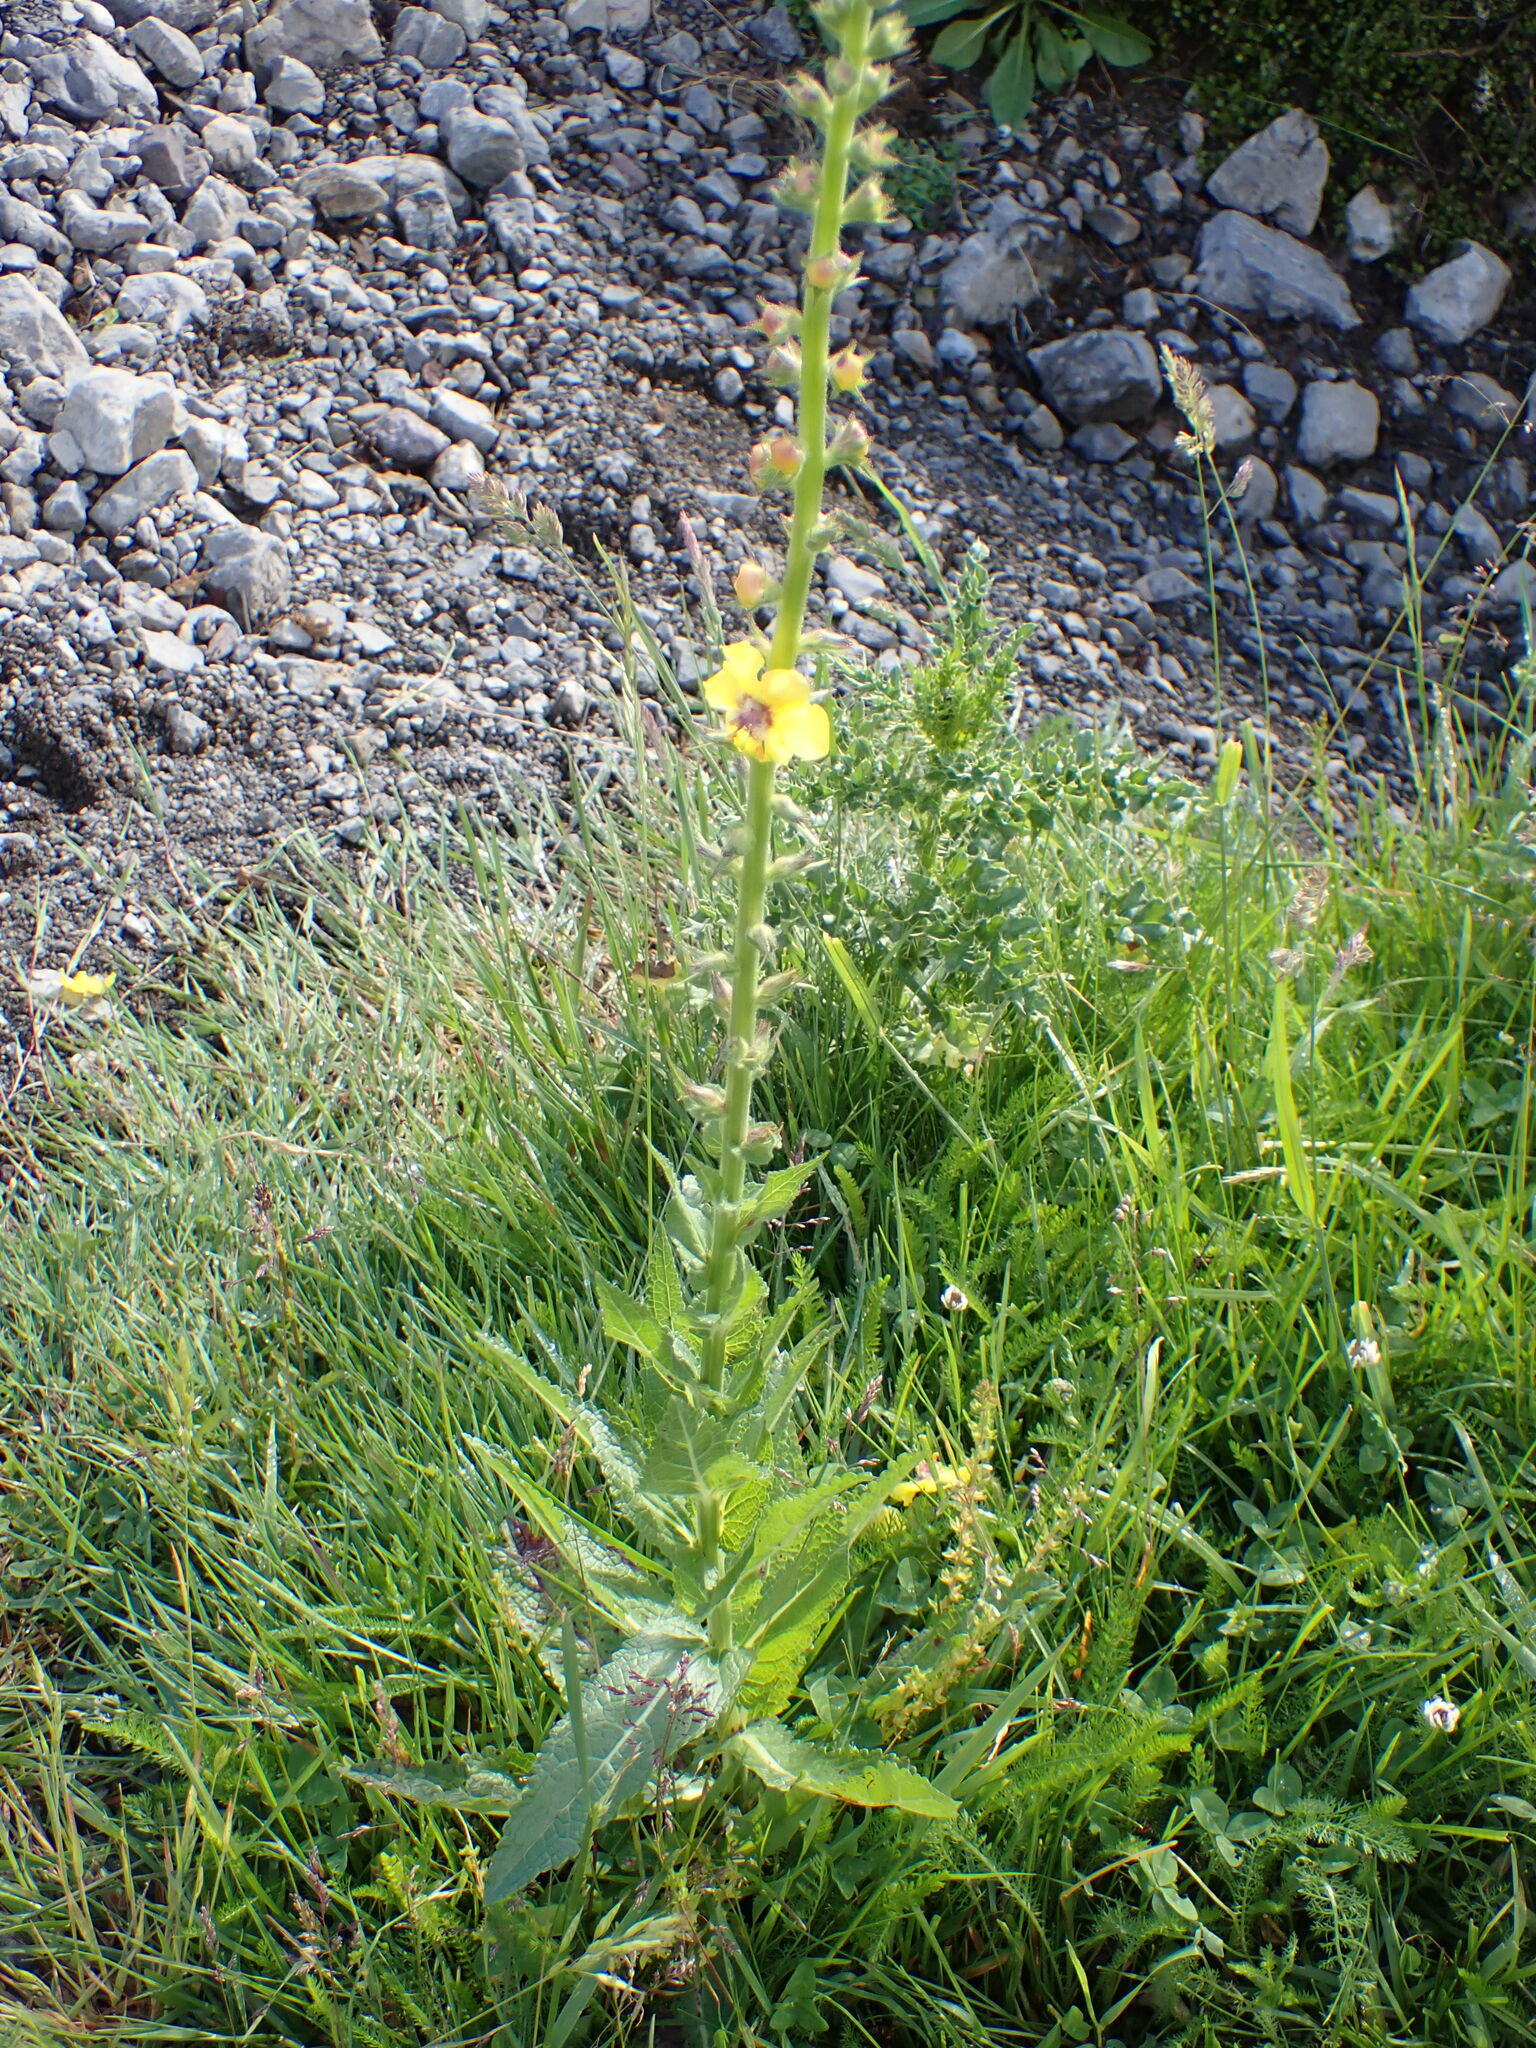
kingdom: Plantae
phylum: Tracheophyta
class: Magnoliopsida
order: Lamiales
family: Scrophulariaceae
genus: Verbascum
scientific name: Verbascum virgatum
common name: Twiggy mullein
